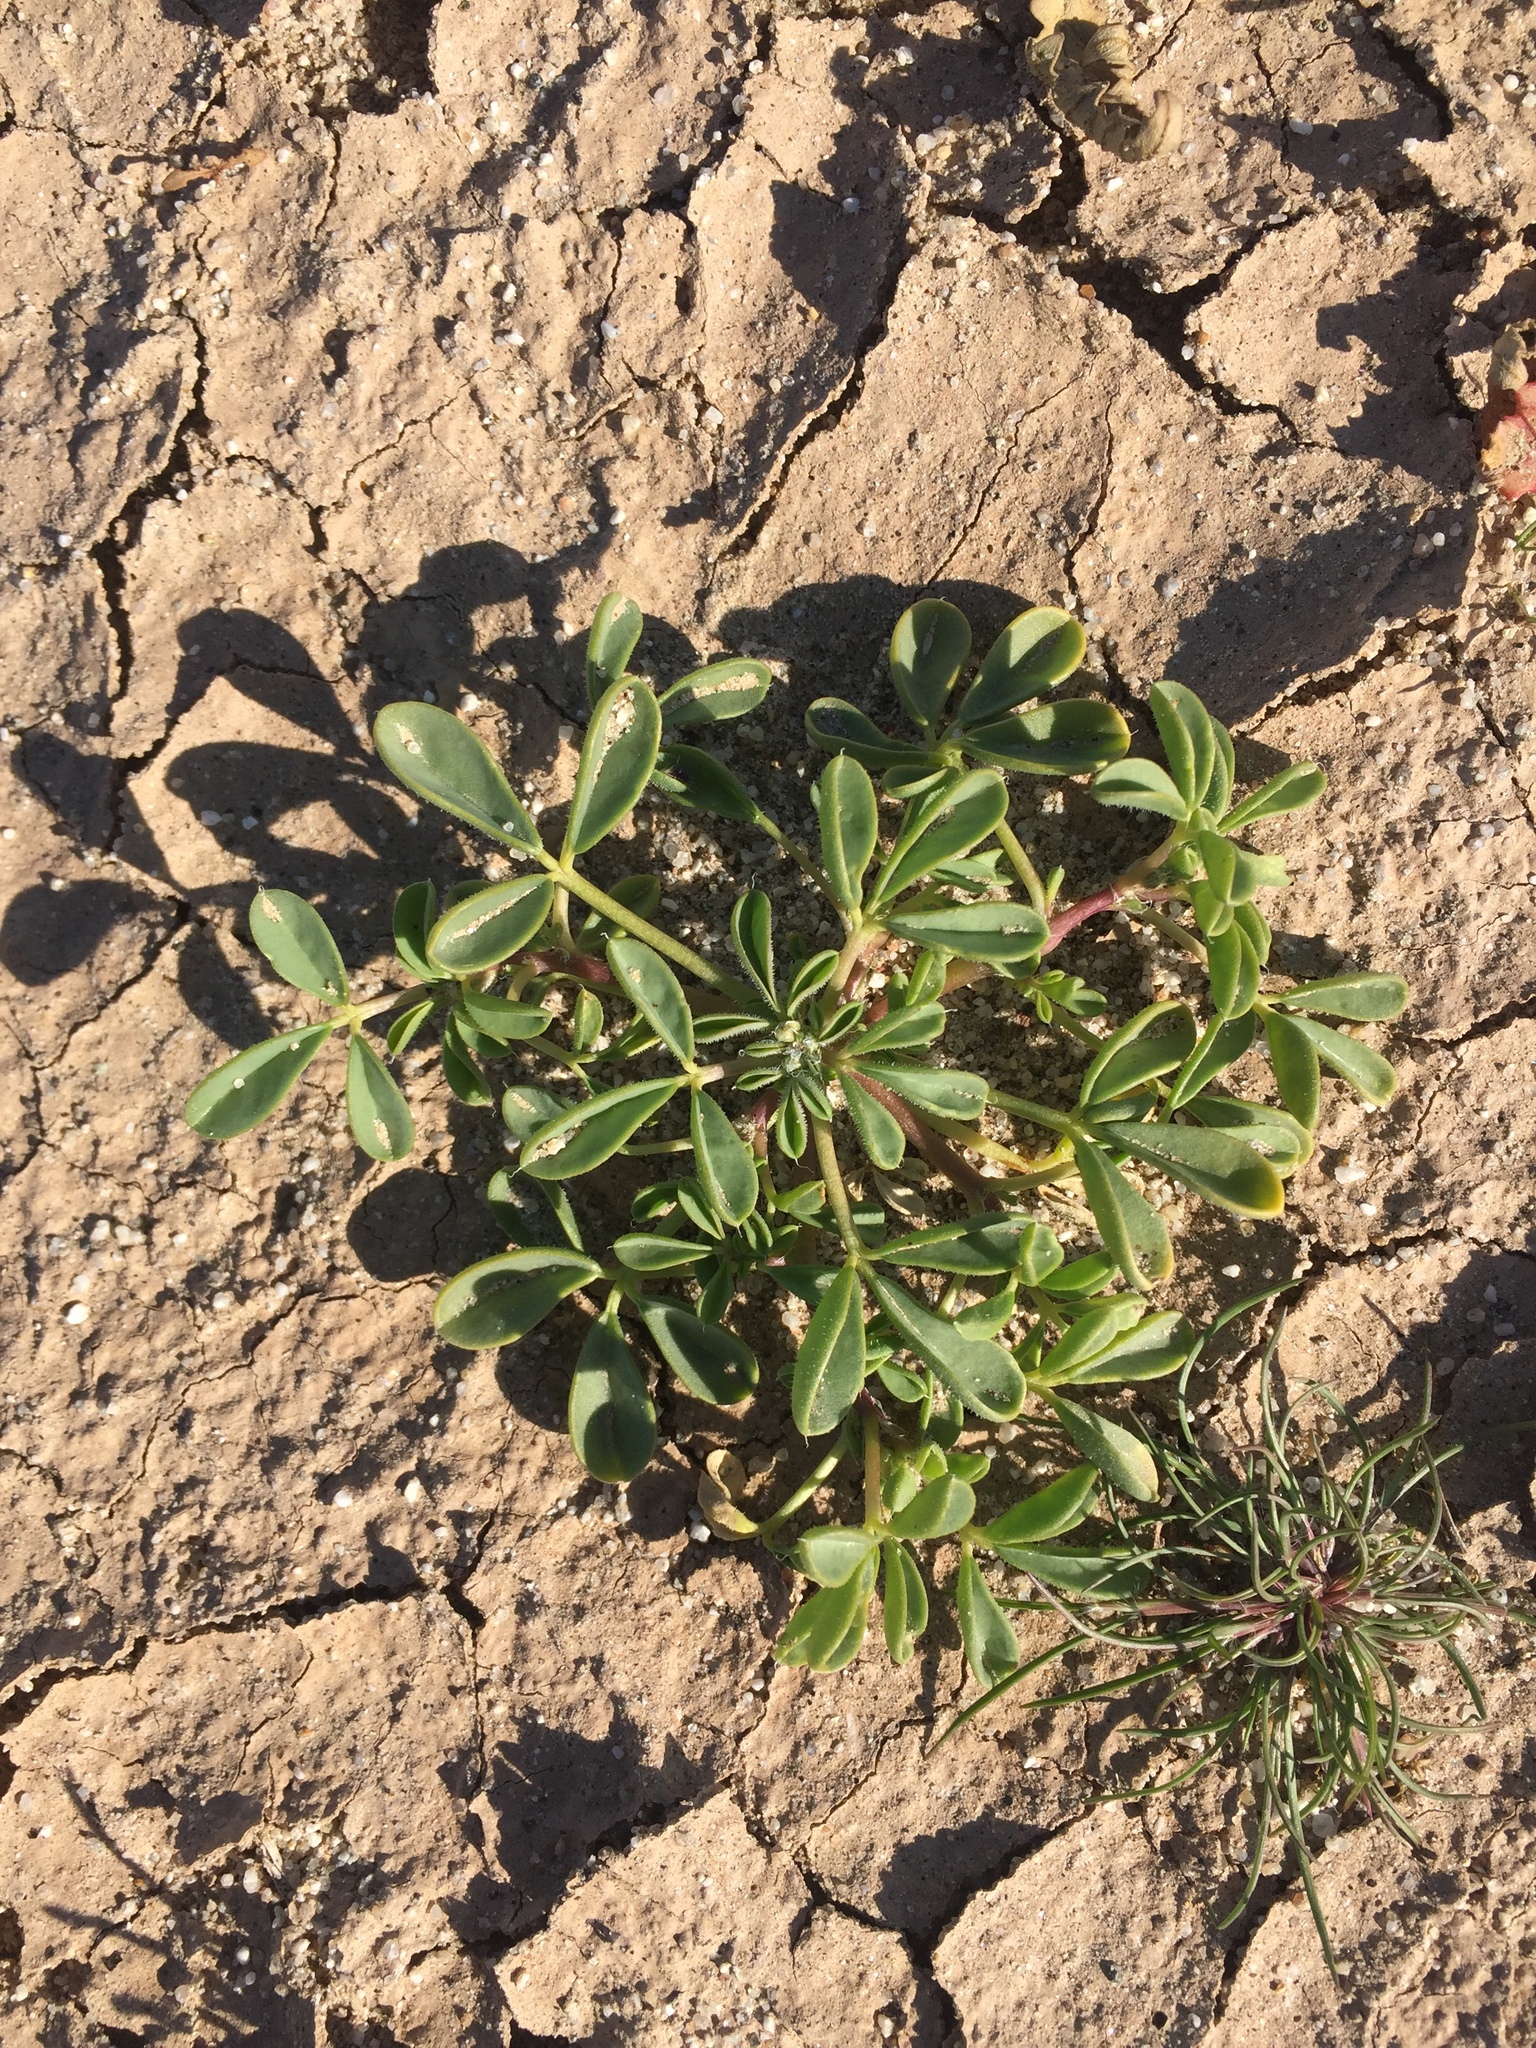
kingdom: Plantae
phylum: Tracheophyta
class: Magnoliopsida
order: Brassicales
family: Cleomaceae
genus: Cleomella
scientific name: Cleomella obtusifolia
